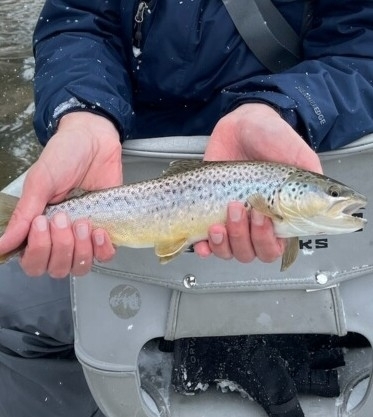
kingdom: Animalia
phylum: Chordata
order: Salmoniformes
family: Salmonidae
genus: Salmo
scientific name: Salmo trutta
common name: Brown trout
